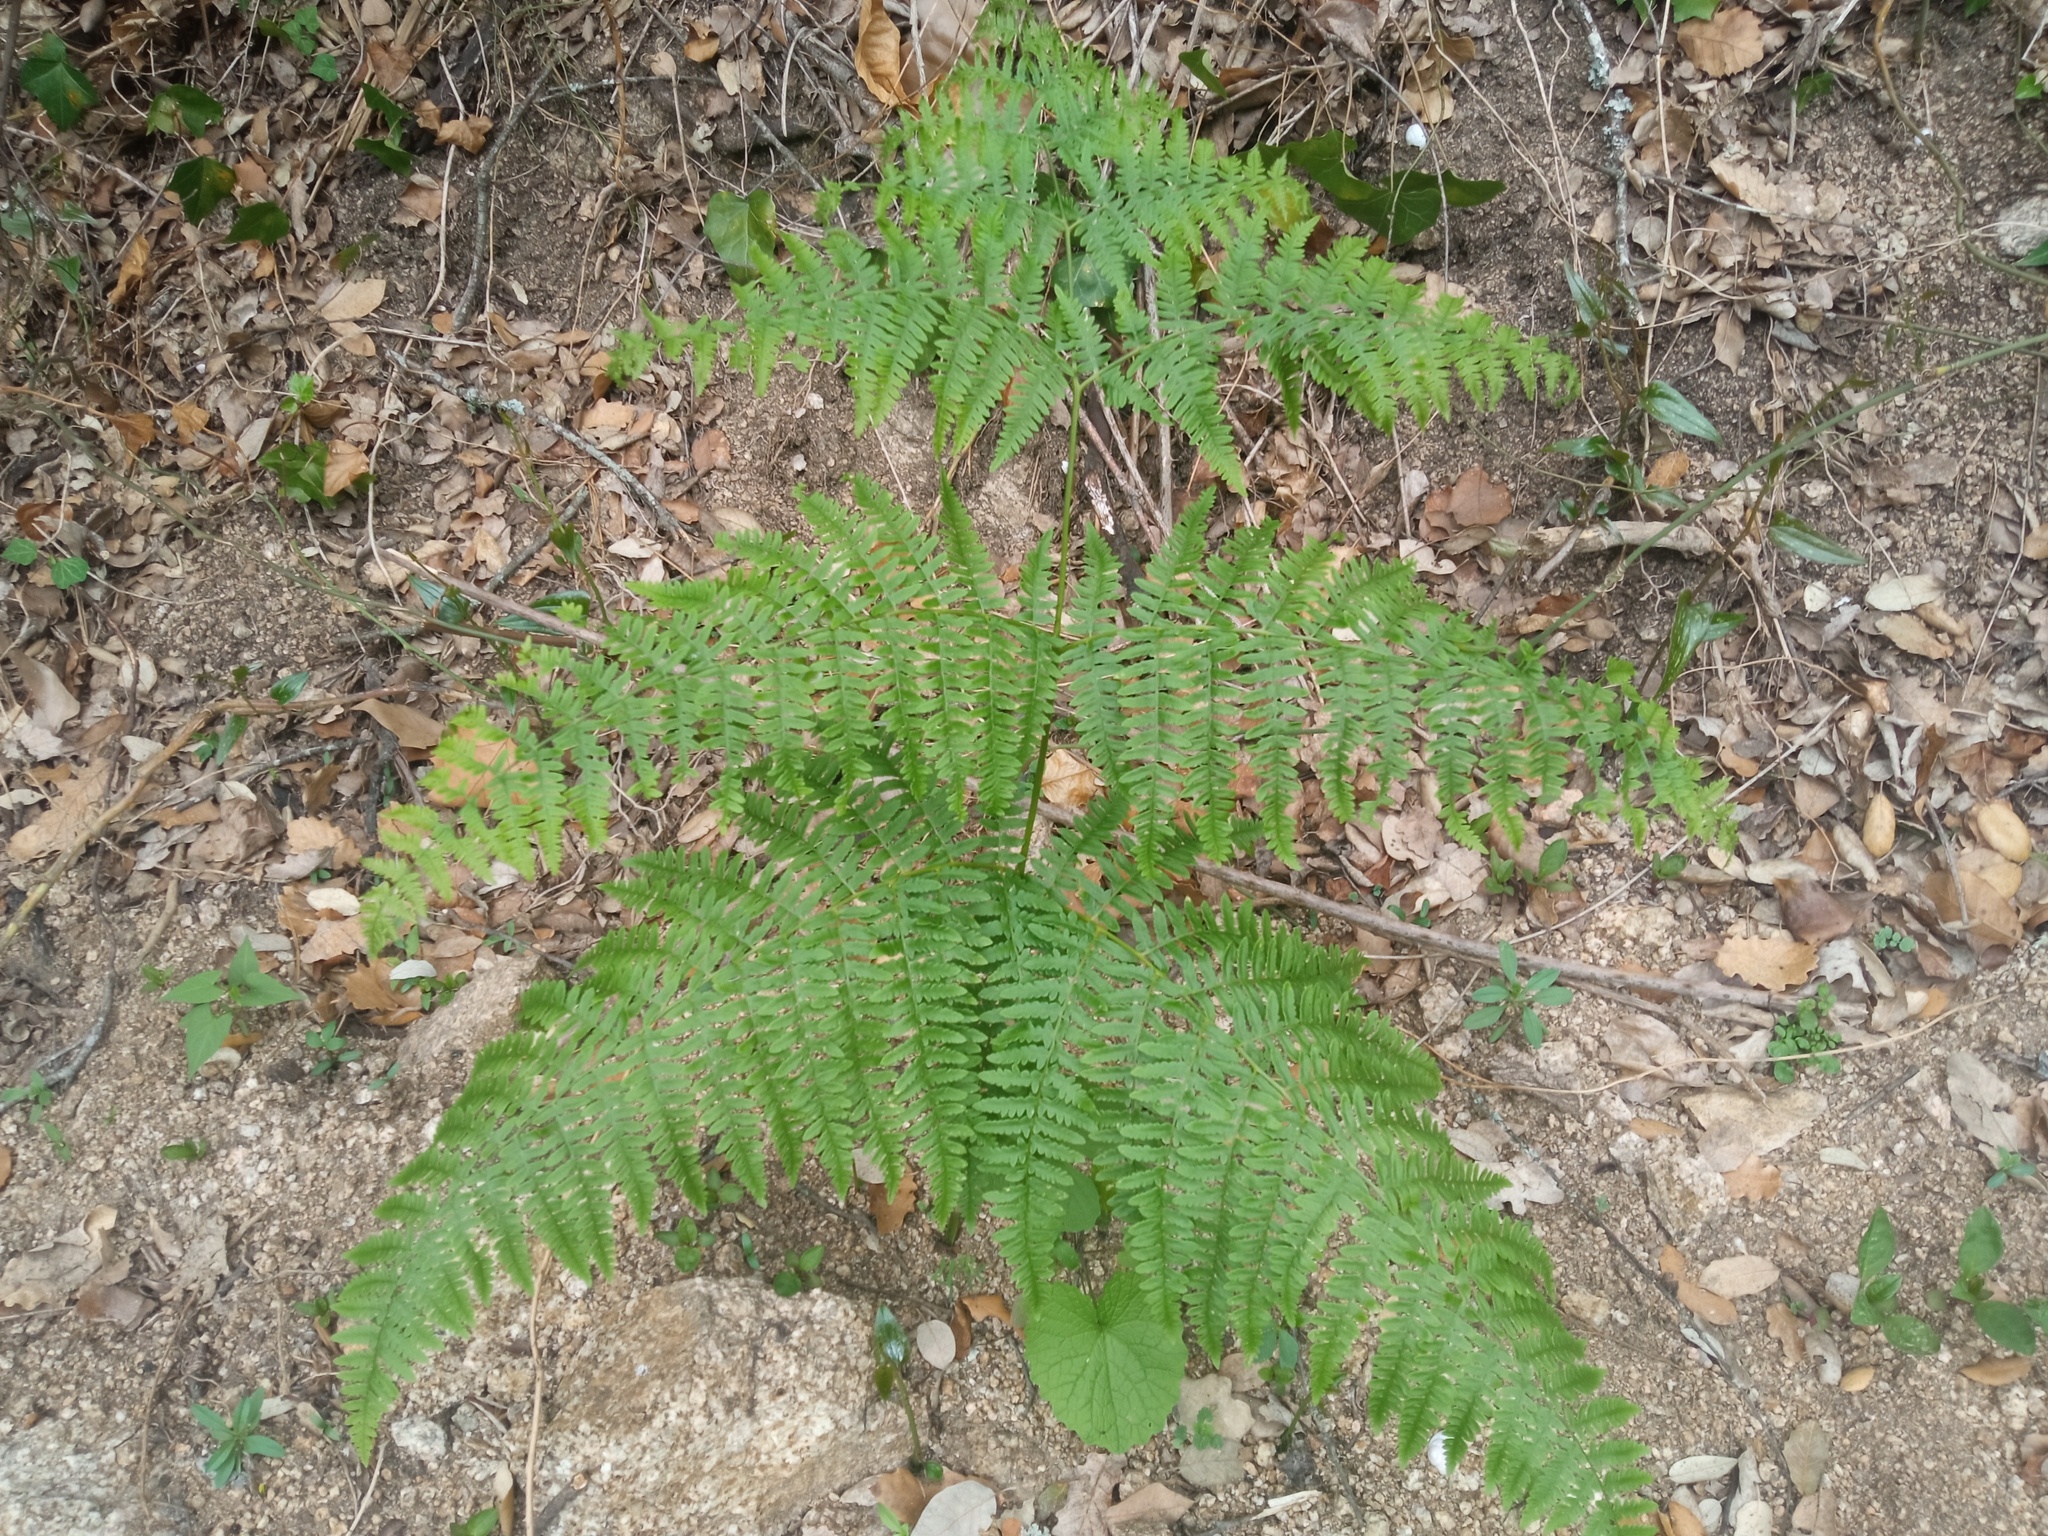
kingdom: Plantae
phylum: Tracheophyta
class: Polypodiopsida
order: Polypodiales
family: Dennstaedtiaceae
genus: Pteridium
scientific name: Pteridium aquilinum
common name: Bracken
